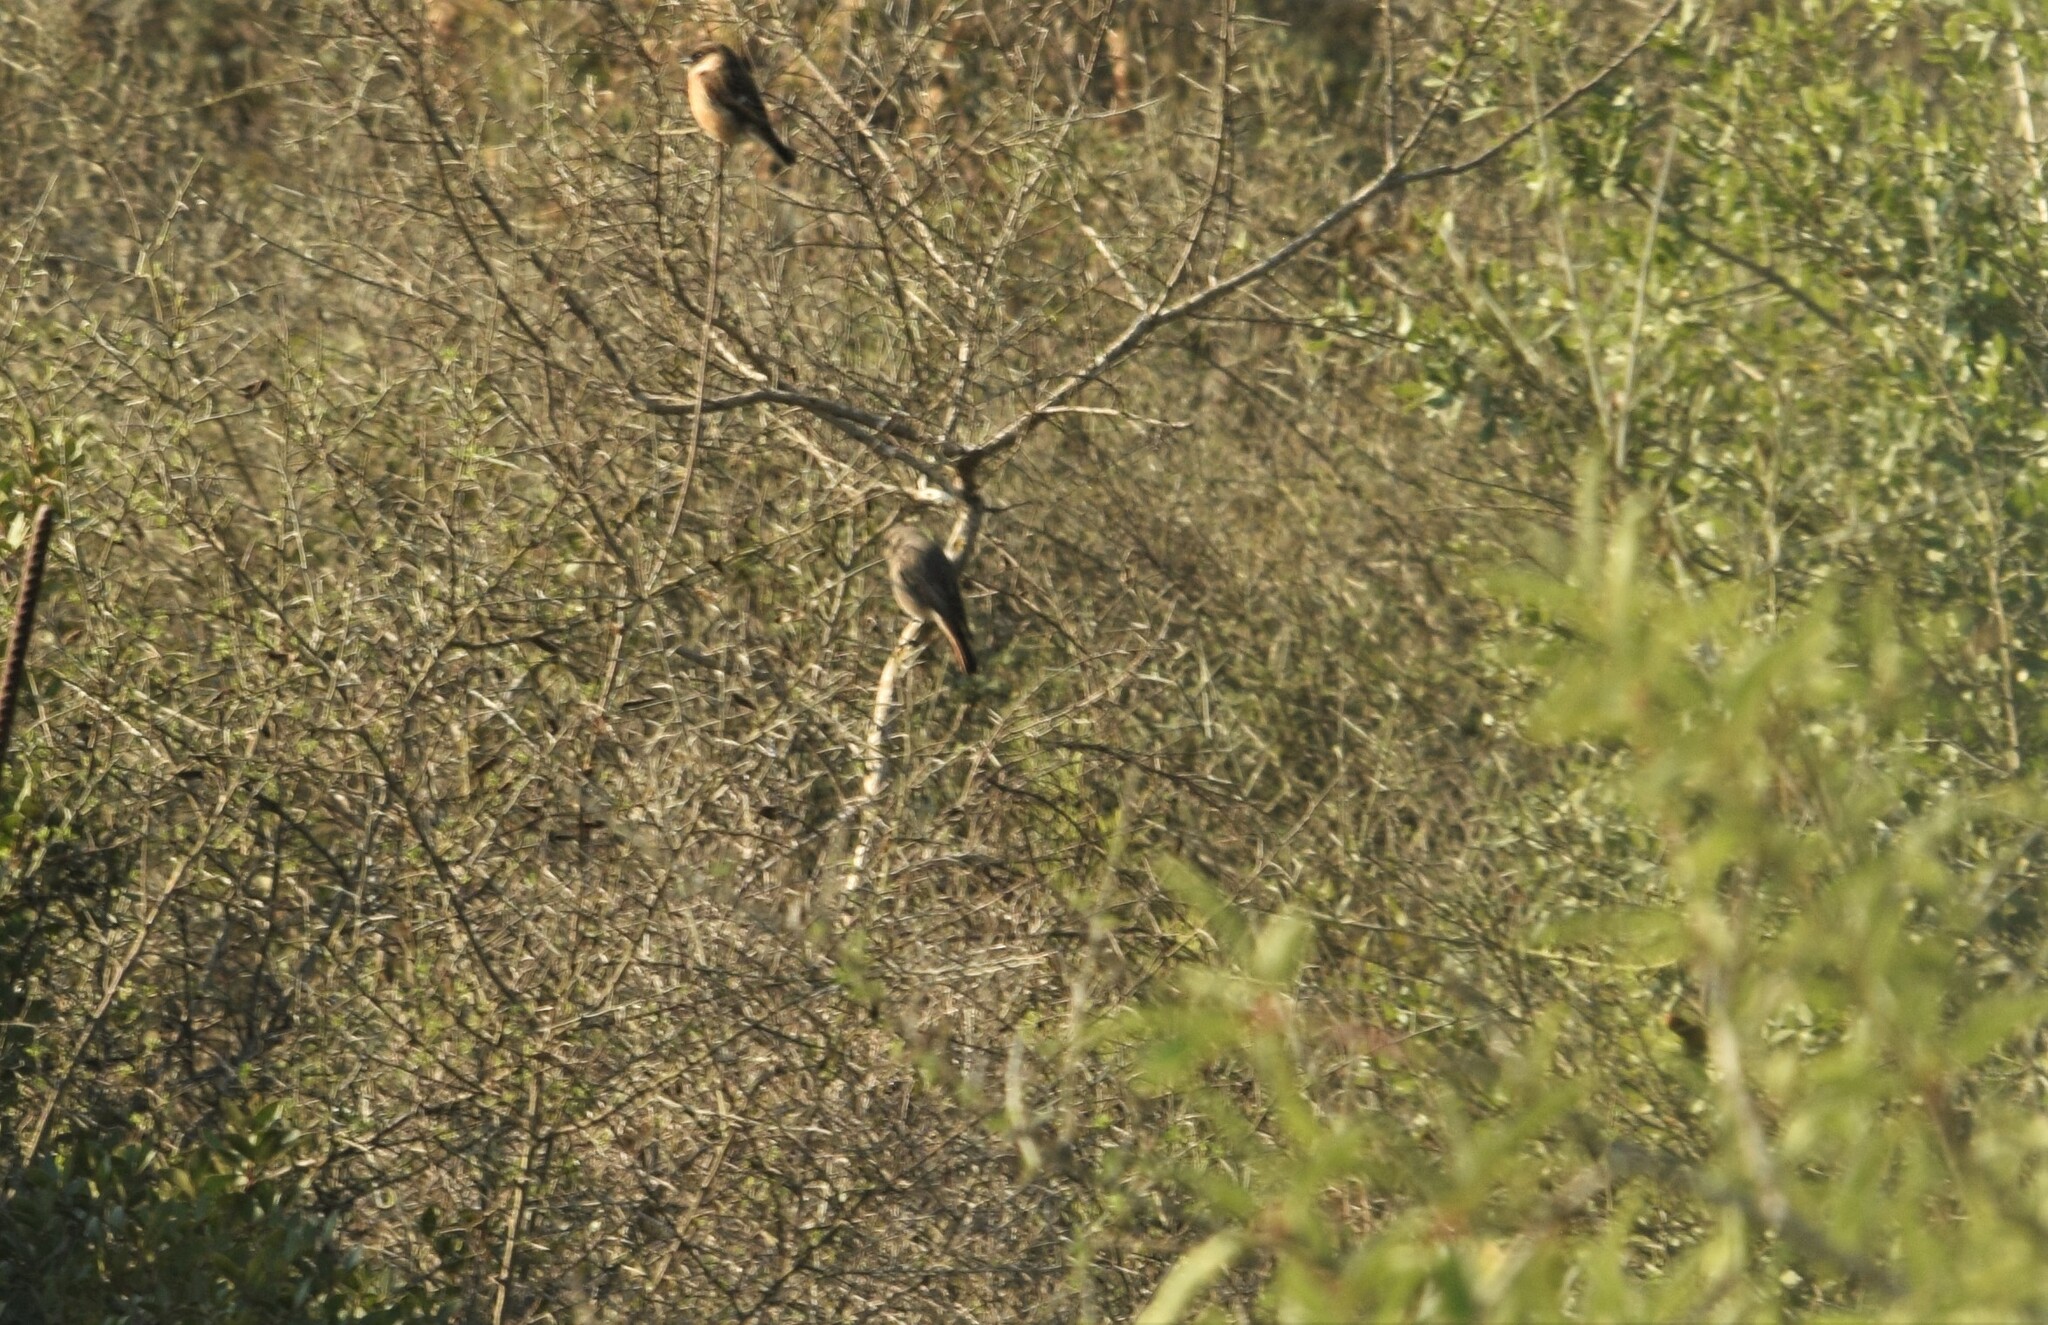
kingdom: Animalia
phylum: Chordata
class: Aves
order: Passeriformes
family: Muscicapidae
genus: Saxicola
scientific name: Saxicola rubicola
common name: European stonechat
